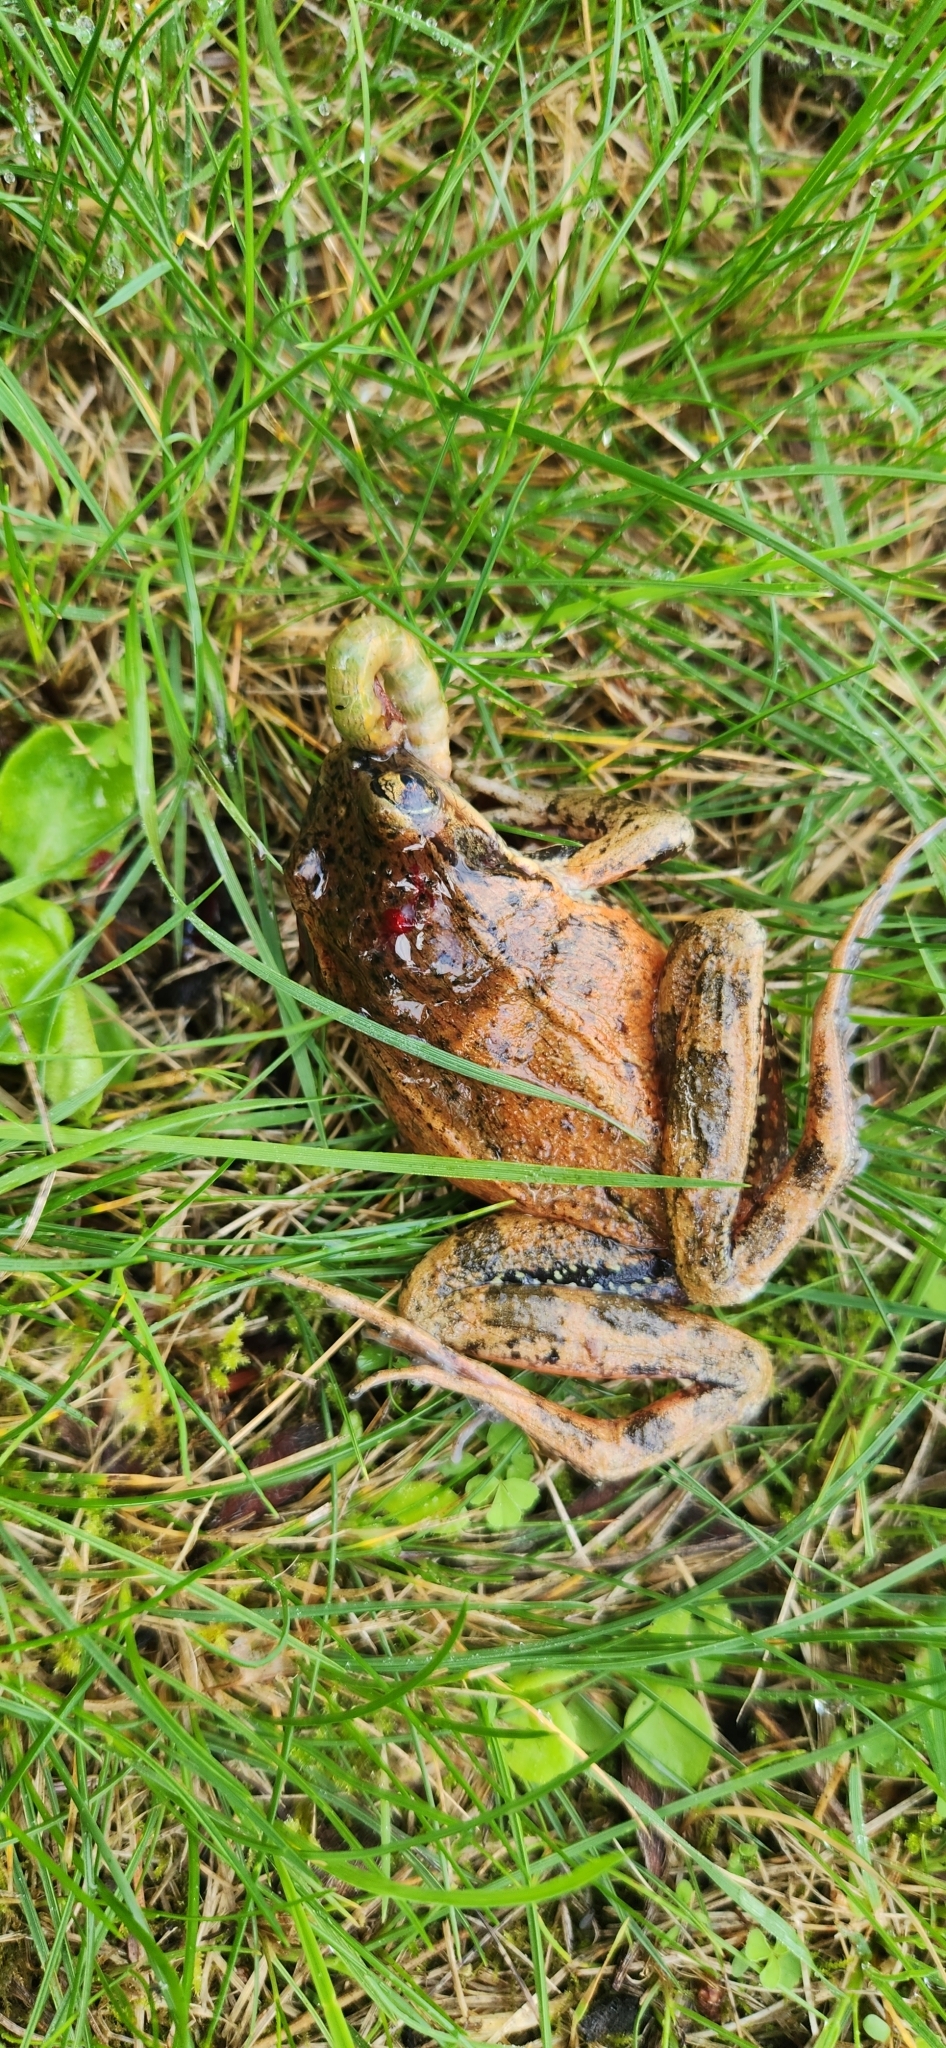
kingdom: Animalia
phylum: Chordata
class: Amphibia
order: Anura
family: Ranidae
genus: Rana
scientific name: Rana aurora
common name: Red-legged frog
